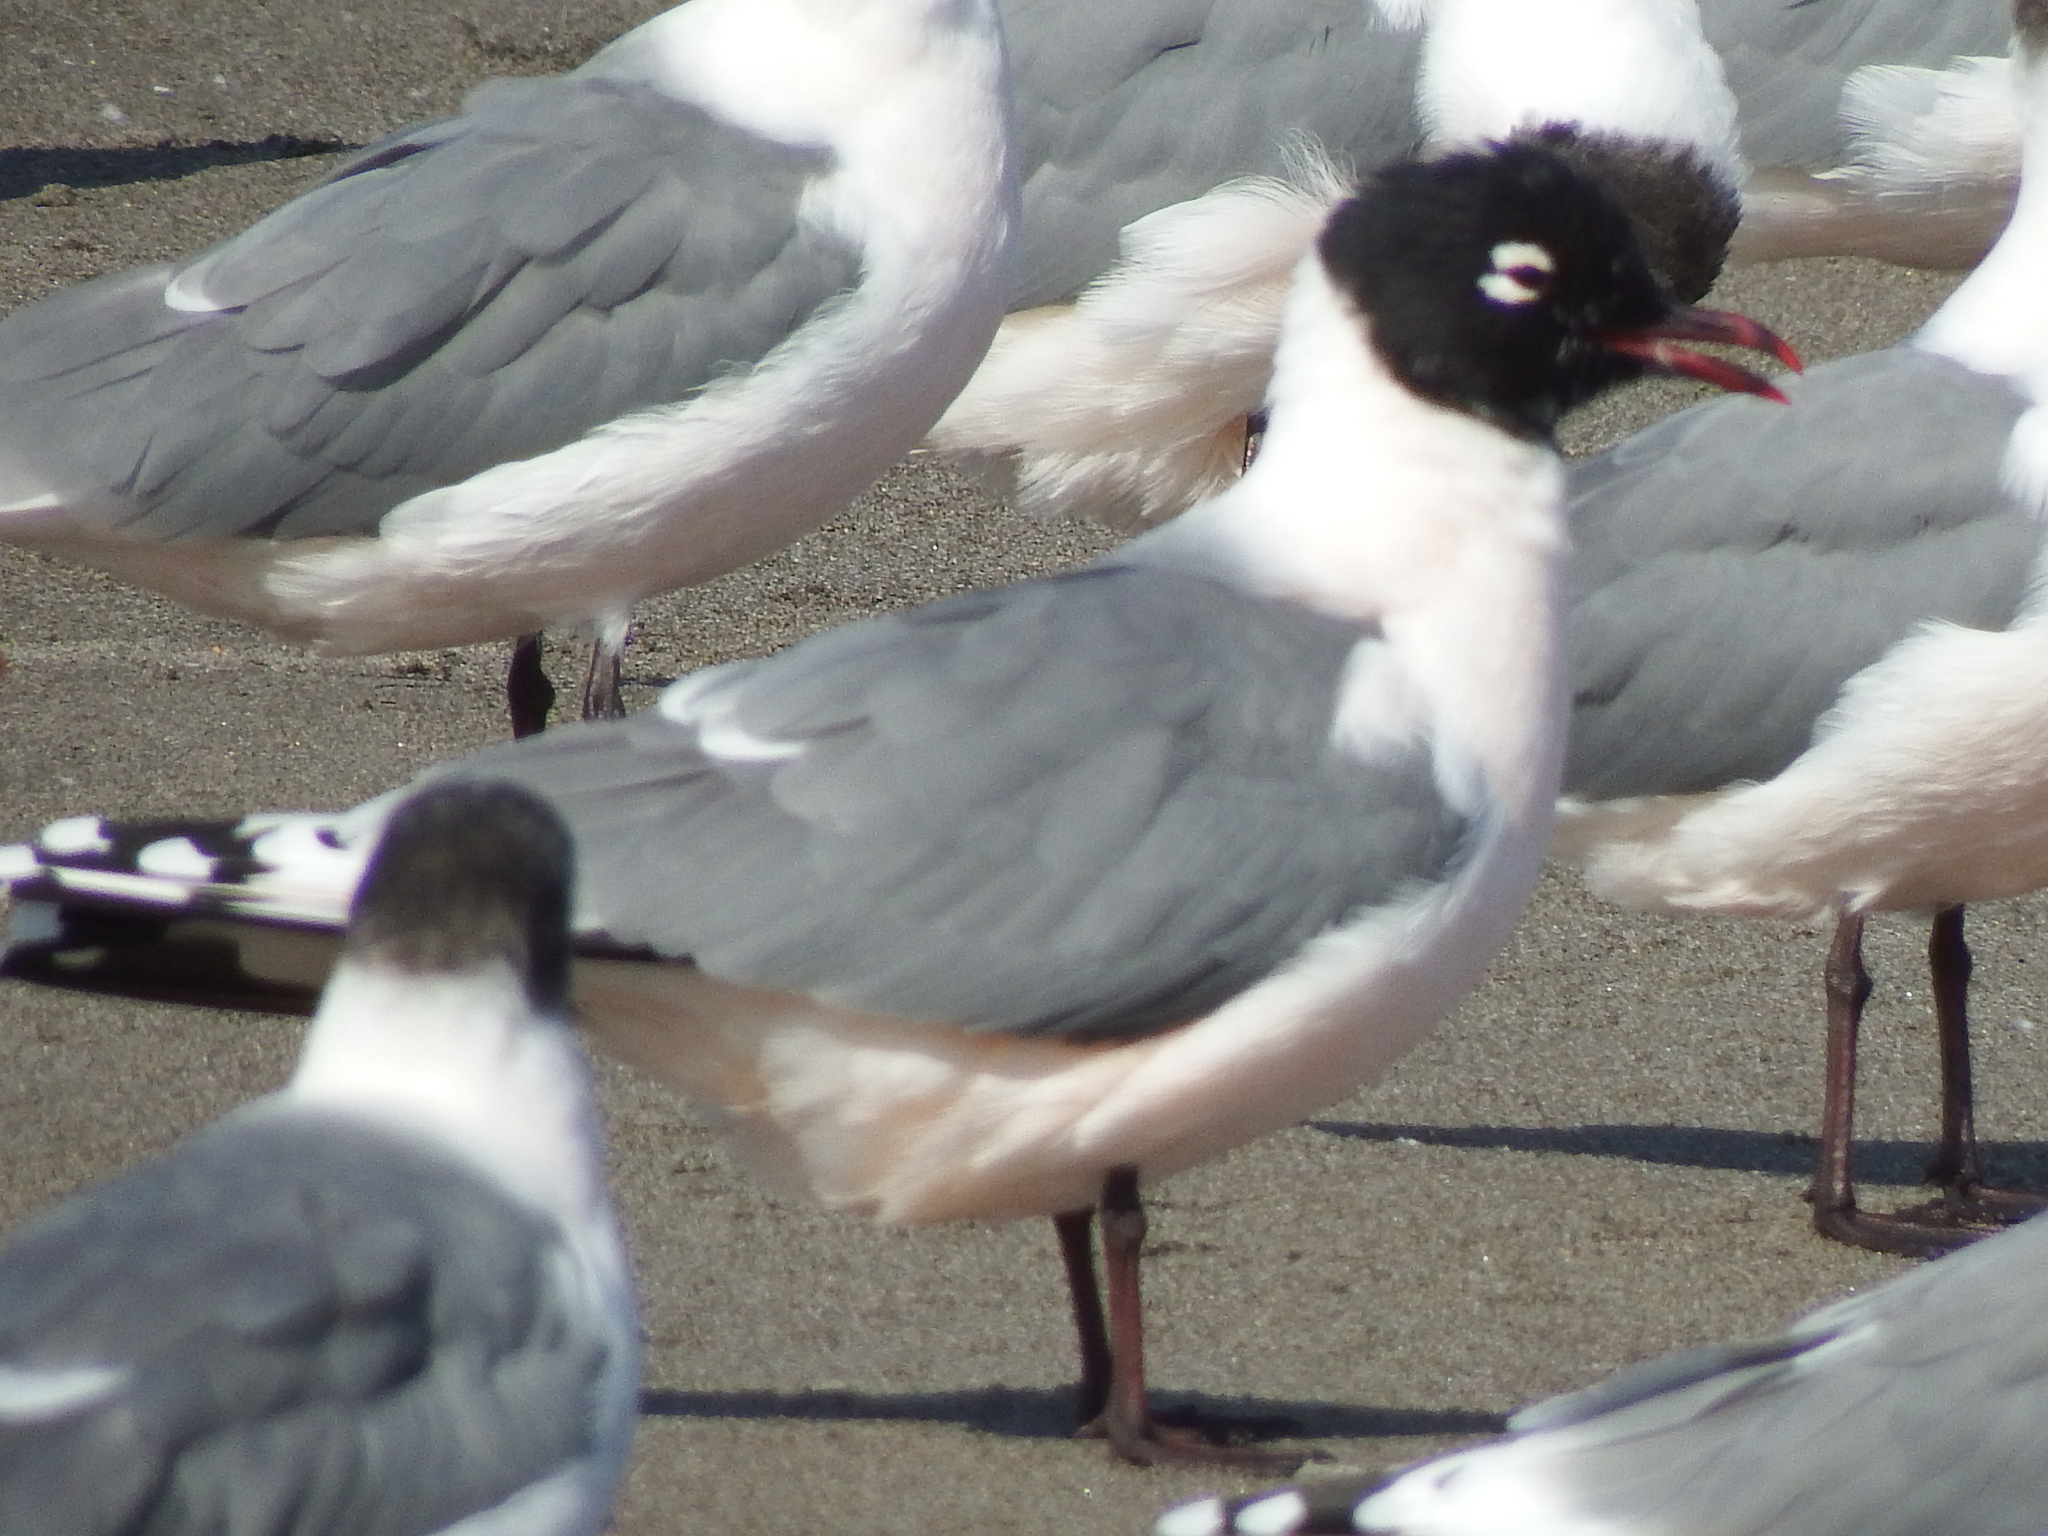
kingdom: Animalia
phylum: Chordata
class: Aves
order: Charadriiformes
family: Laridae
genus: Leucophaeus
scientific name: Leucophaeus pipixcan
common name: Franklin's gull
